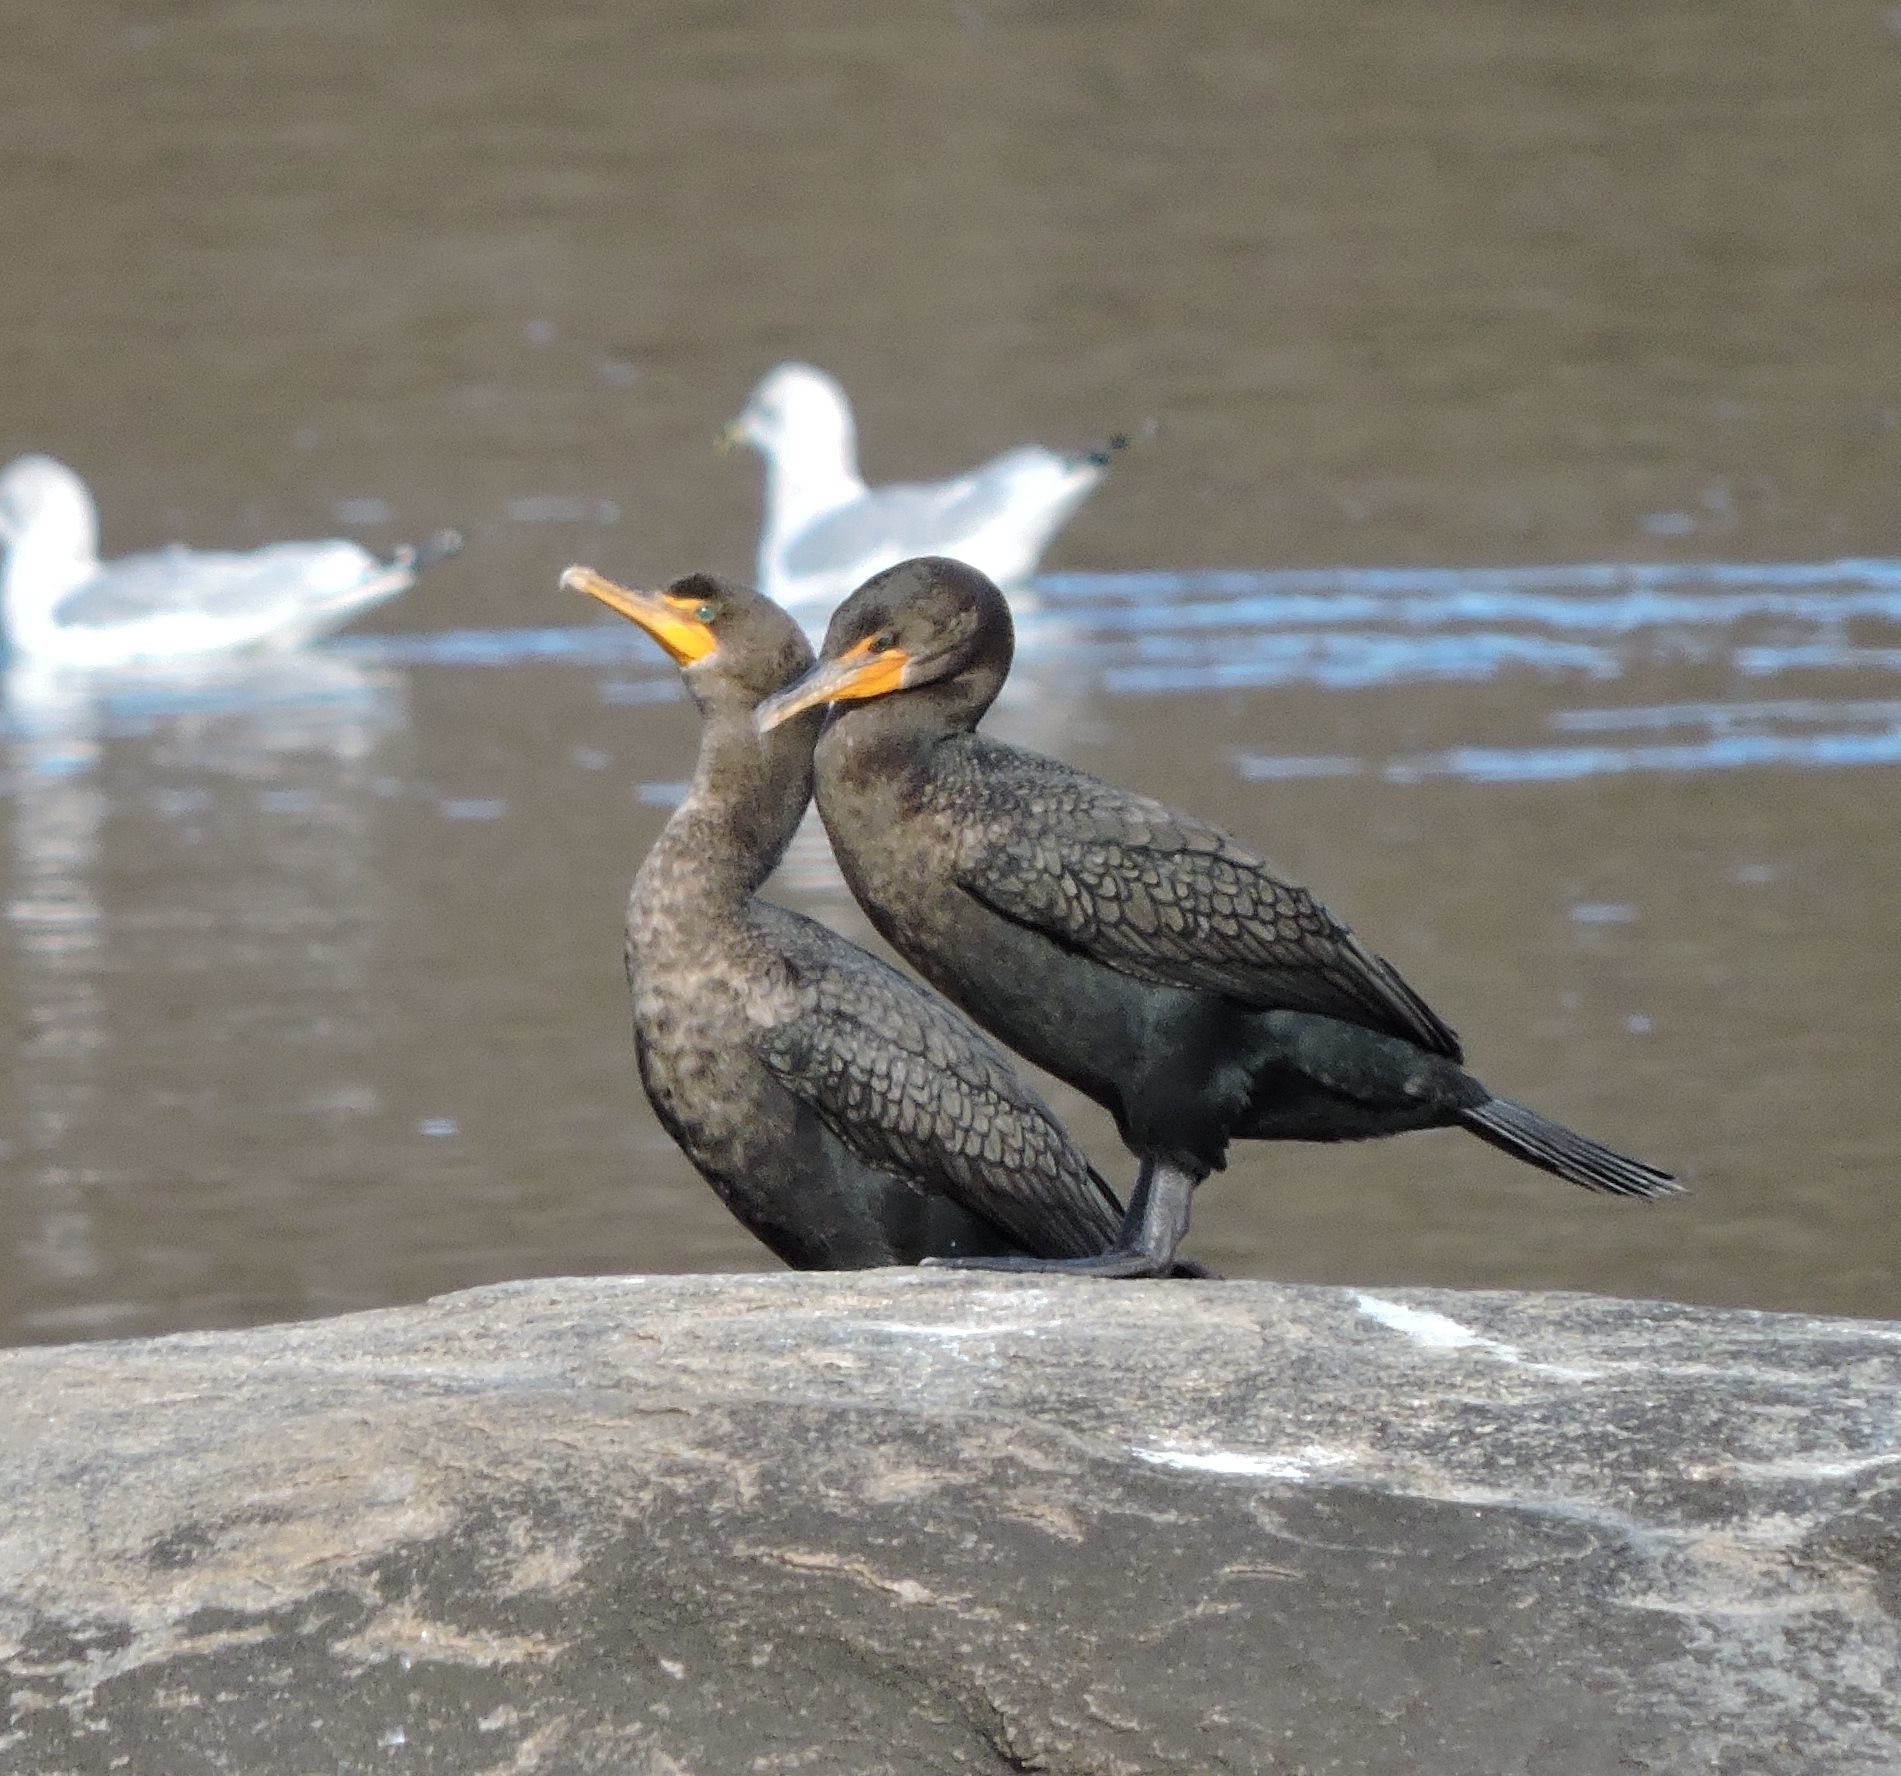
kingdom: Animalia
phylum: Chordata
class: Aves
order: Suliformes
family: Phalacrocoracidae
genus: Phalacrocorax
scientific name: Phalacrocorax auritus
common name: Double-crested cormorant
